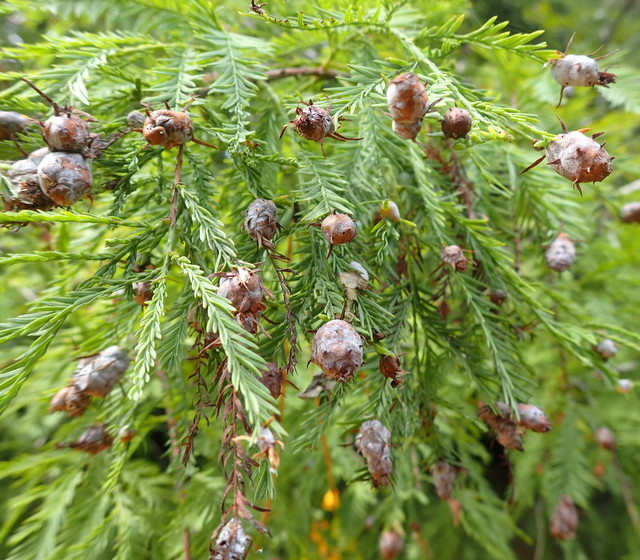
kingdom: Animalia
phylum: Arthropoda
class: Insecta
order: Diptera
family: Cecidomyiidae
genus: Taxodiomyia
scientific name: Taxodiomyia cupressiananassa
